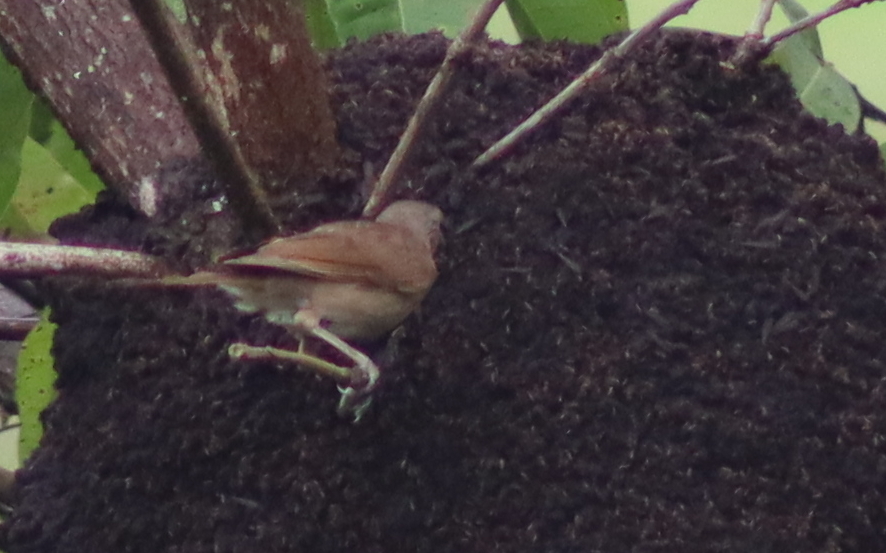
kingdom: Animalia
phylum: Chordata
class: Aves
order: Passeriformes
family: Turdidae
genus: Turdus
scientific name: Turdus leucomelas
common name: Pale-breasted thrush
